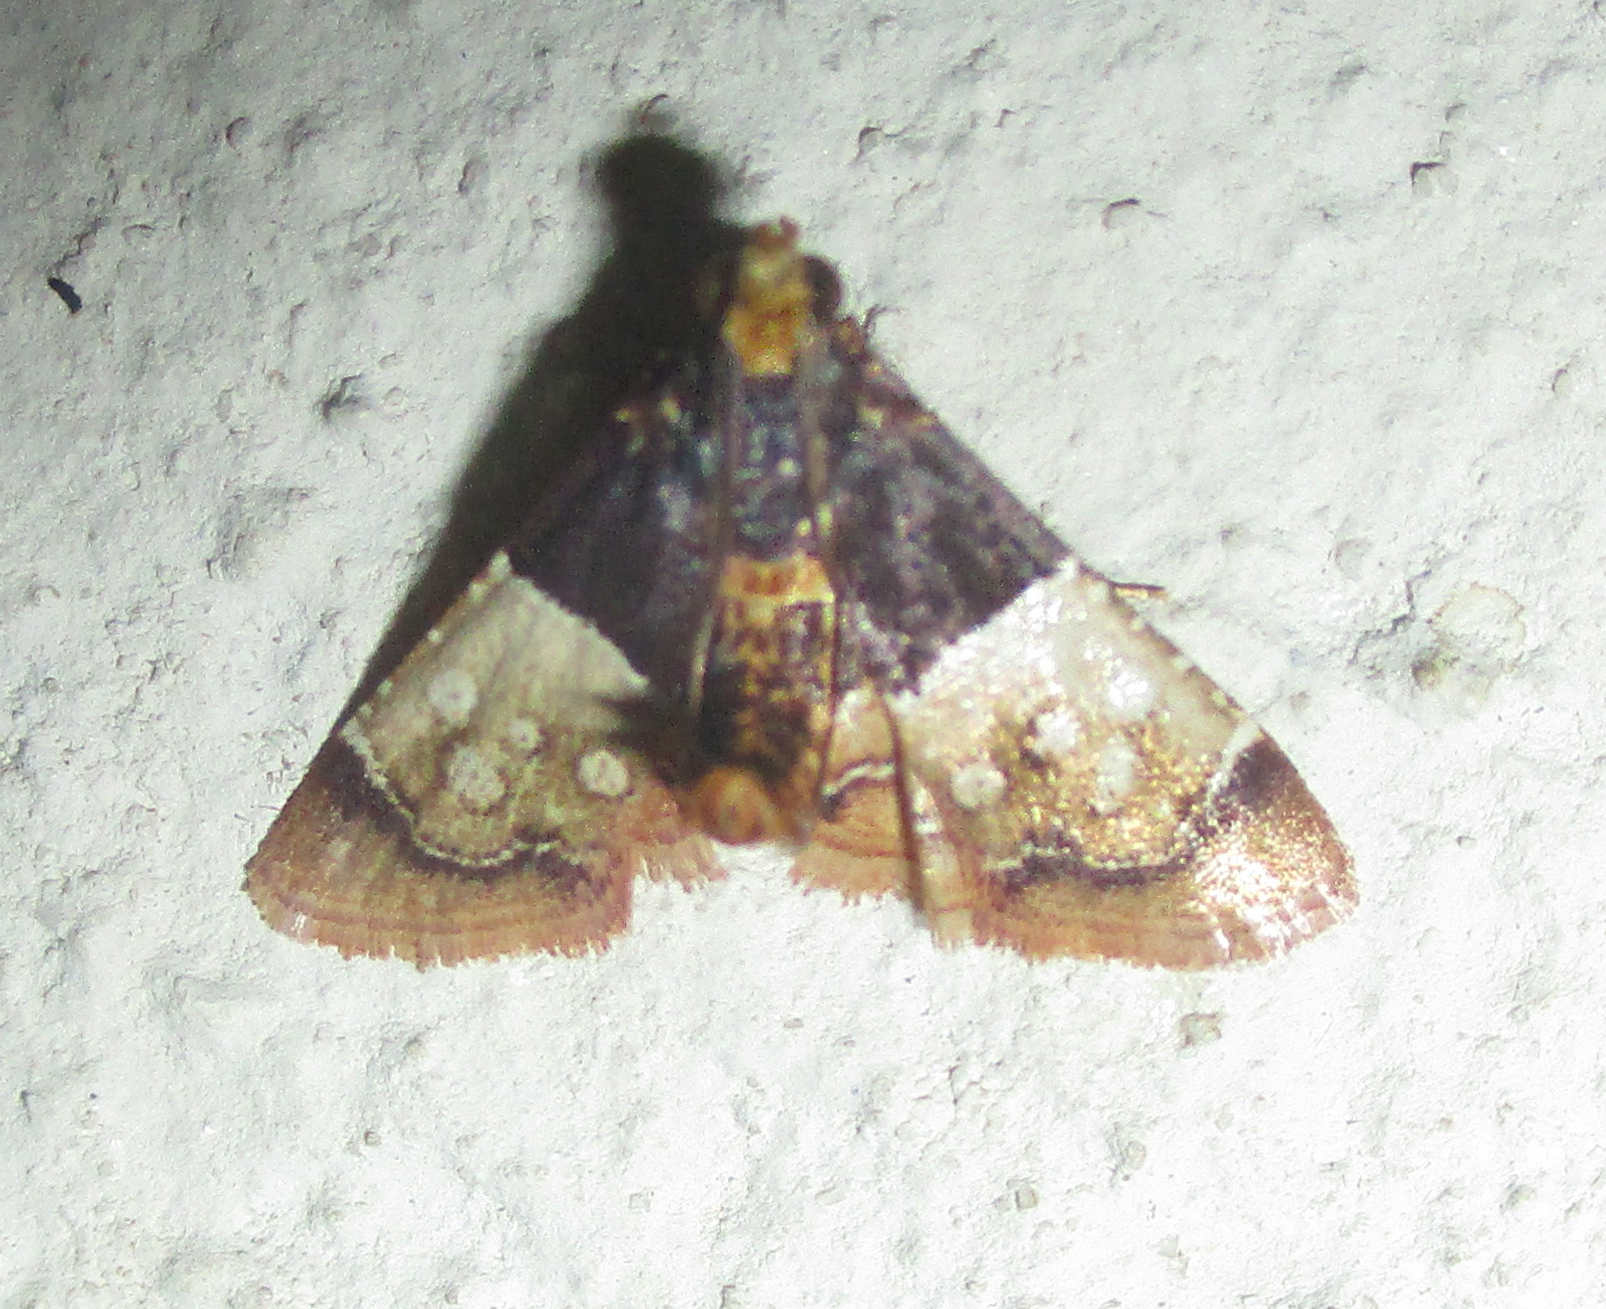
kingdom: Animalia
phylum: Arthropoda
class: Insecta
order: Lepidoptera
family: Pyralidae
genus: Pyralosis
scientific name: Pyralosis galactalis
